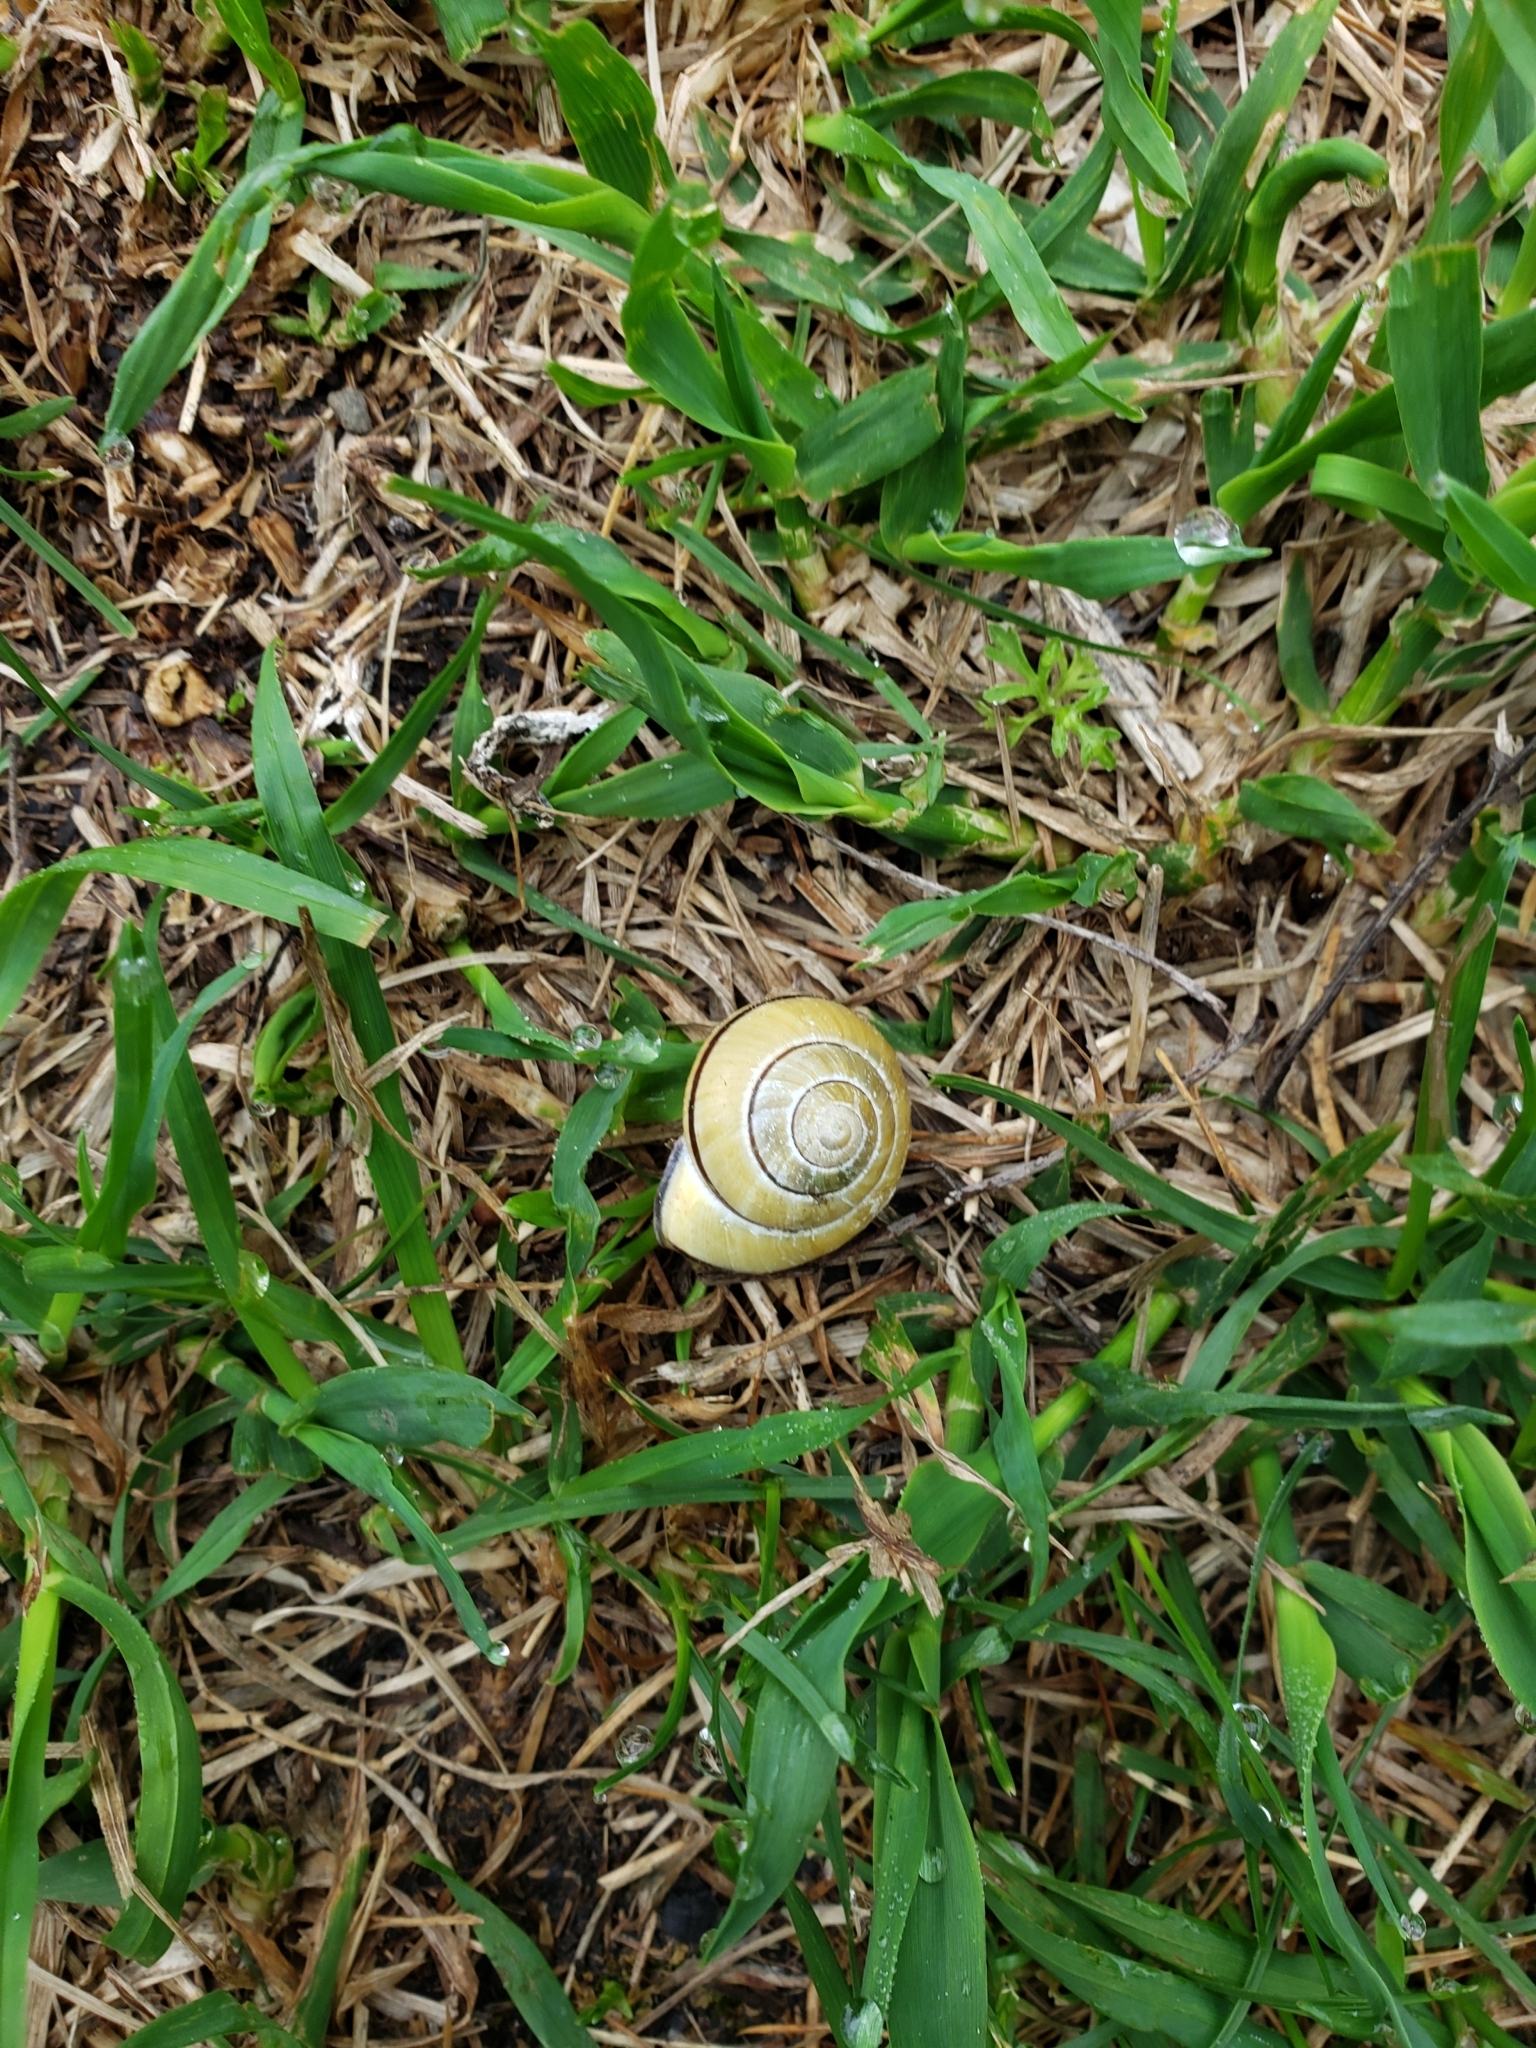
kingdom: Animalia
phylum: Mollusca
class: Gastropoda
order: Stylommatophora
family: Helicidae
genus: Cepaea
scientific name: Cepaea nemoralis
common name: Grovesnail
